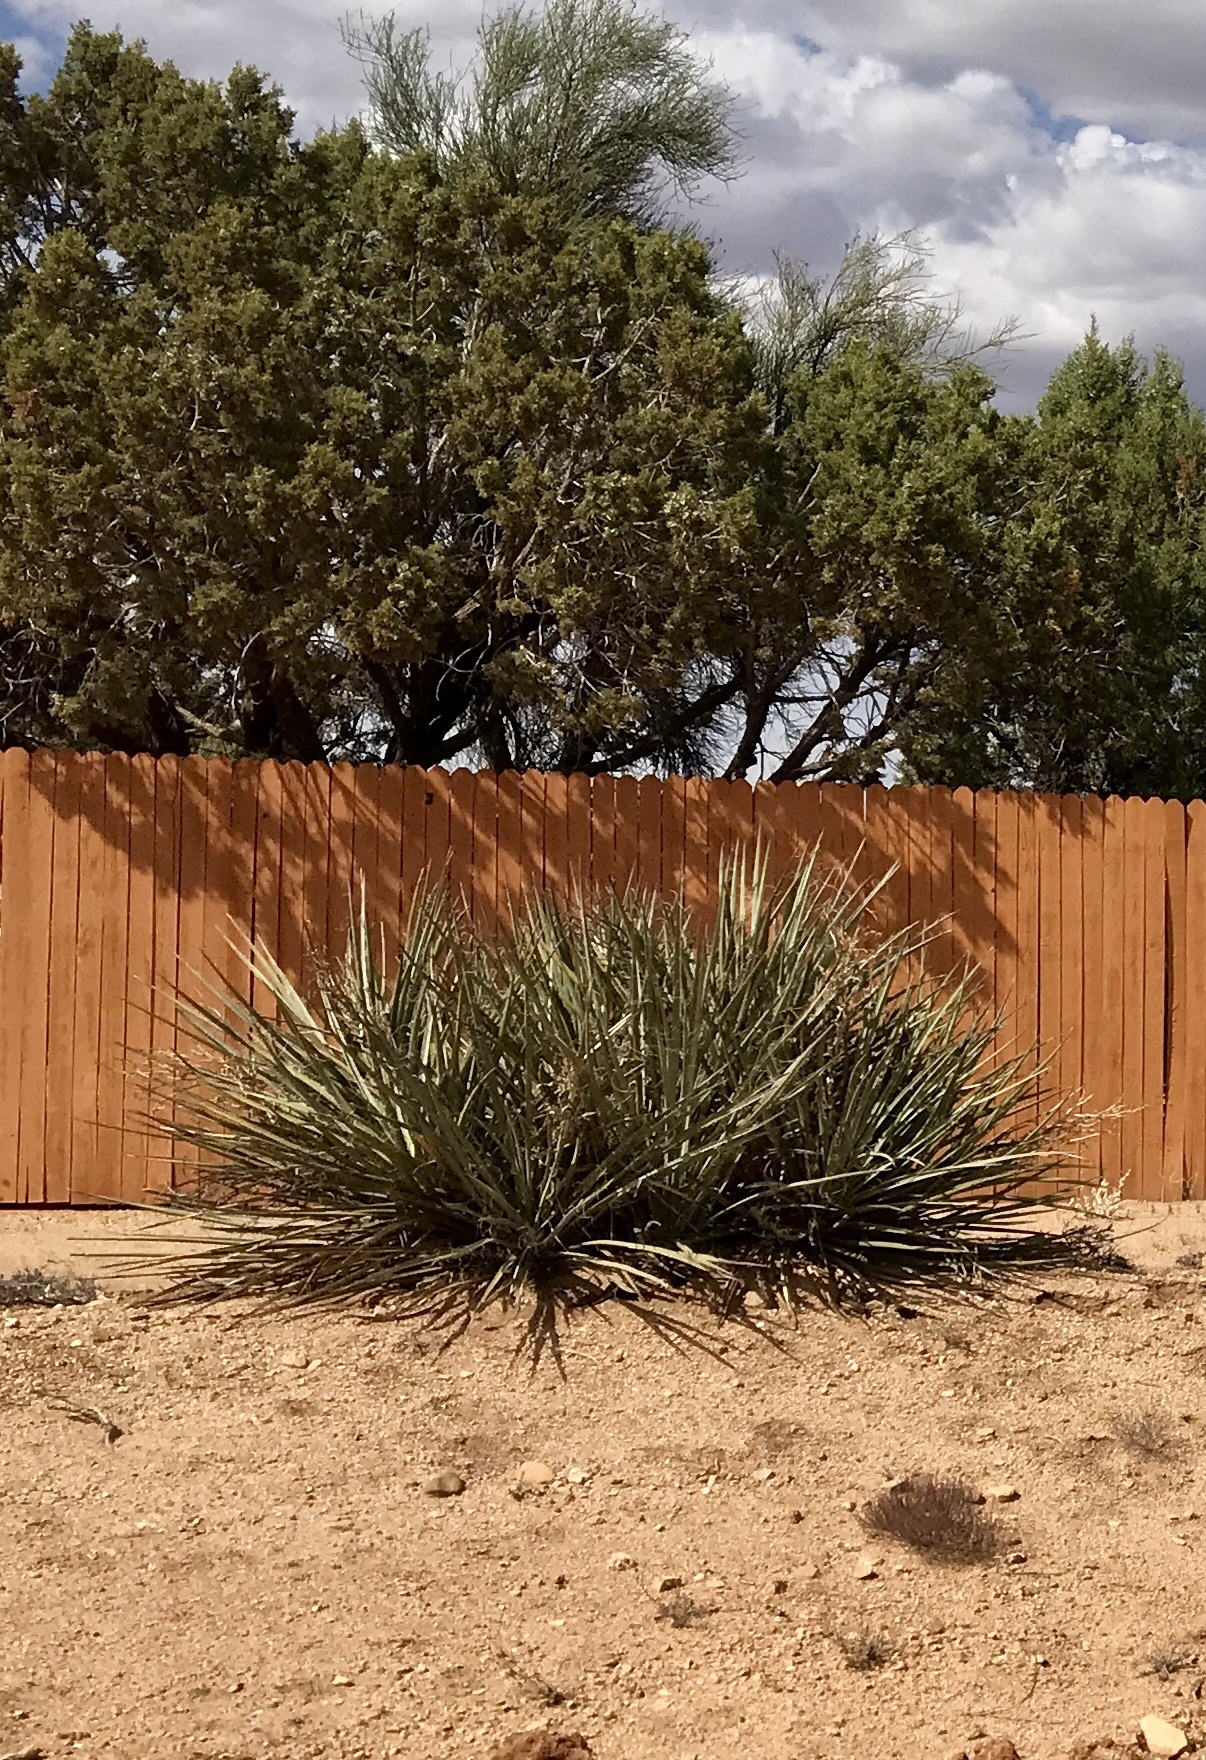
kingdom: Plantae
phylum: Tracheophyta
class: Liliopsida
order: Asparagales
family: Asparagaceae
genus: Yucca
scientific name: Yucca baccata
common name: Banana yucca
